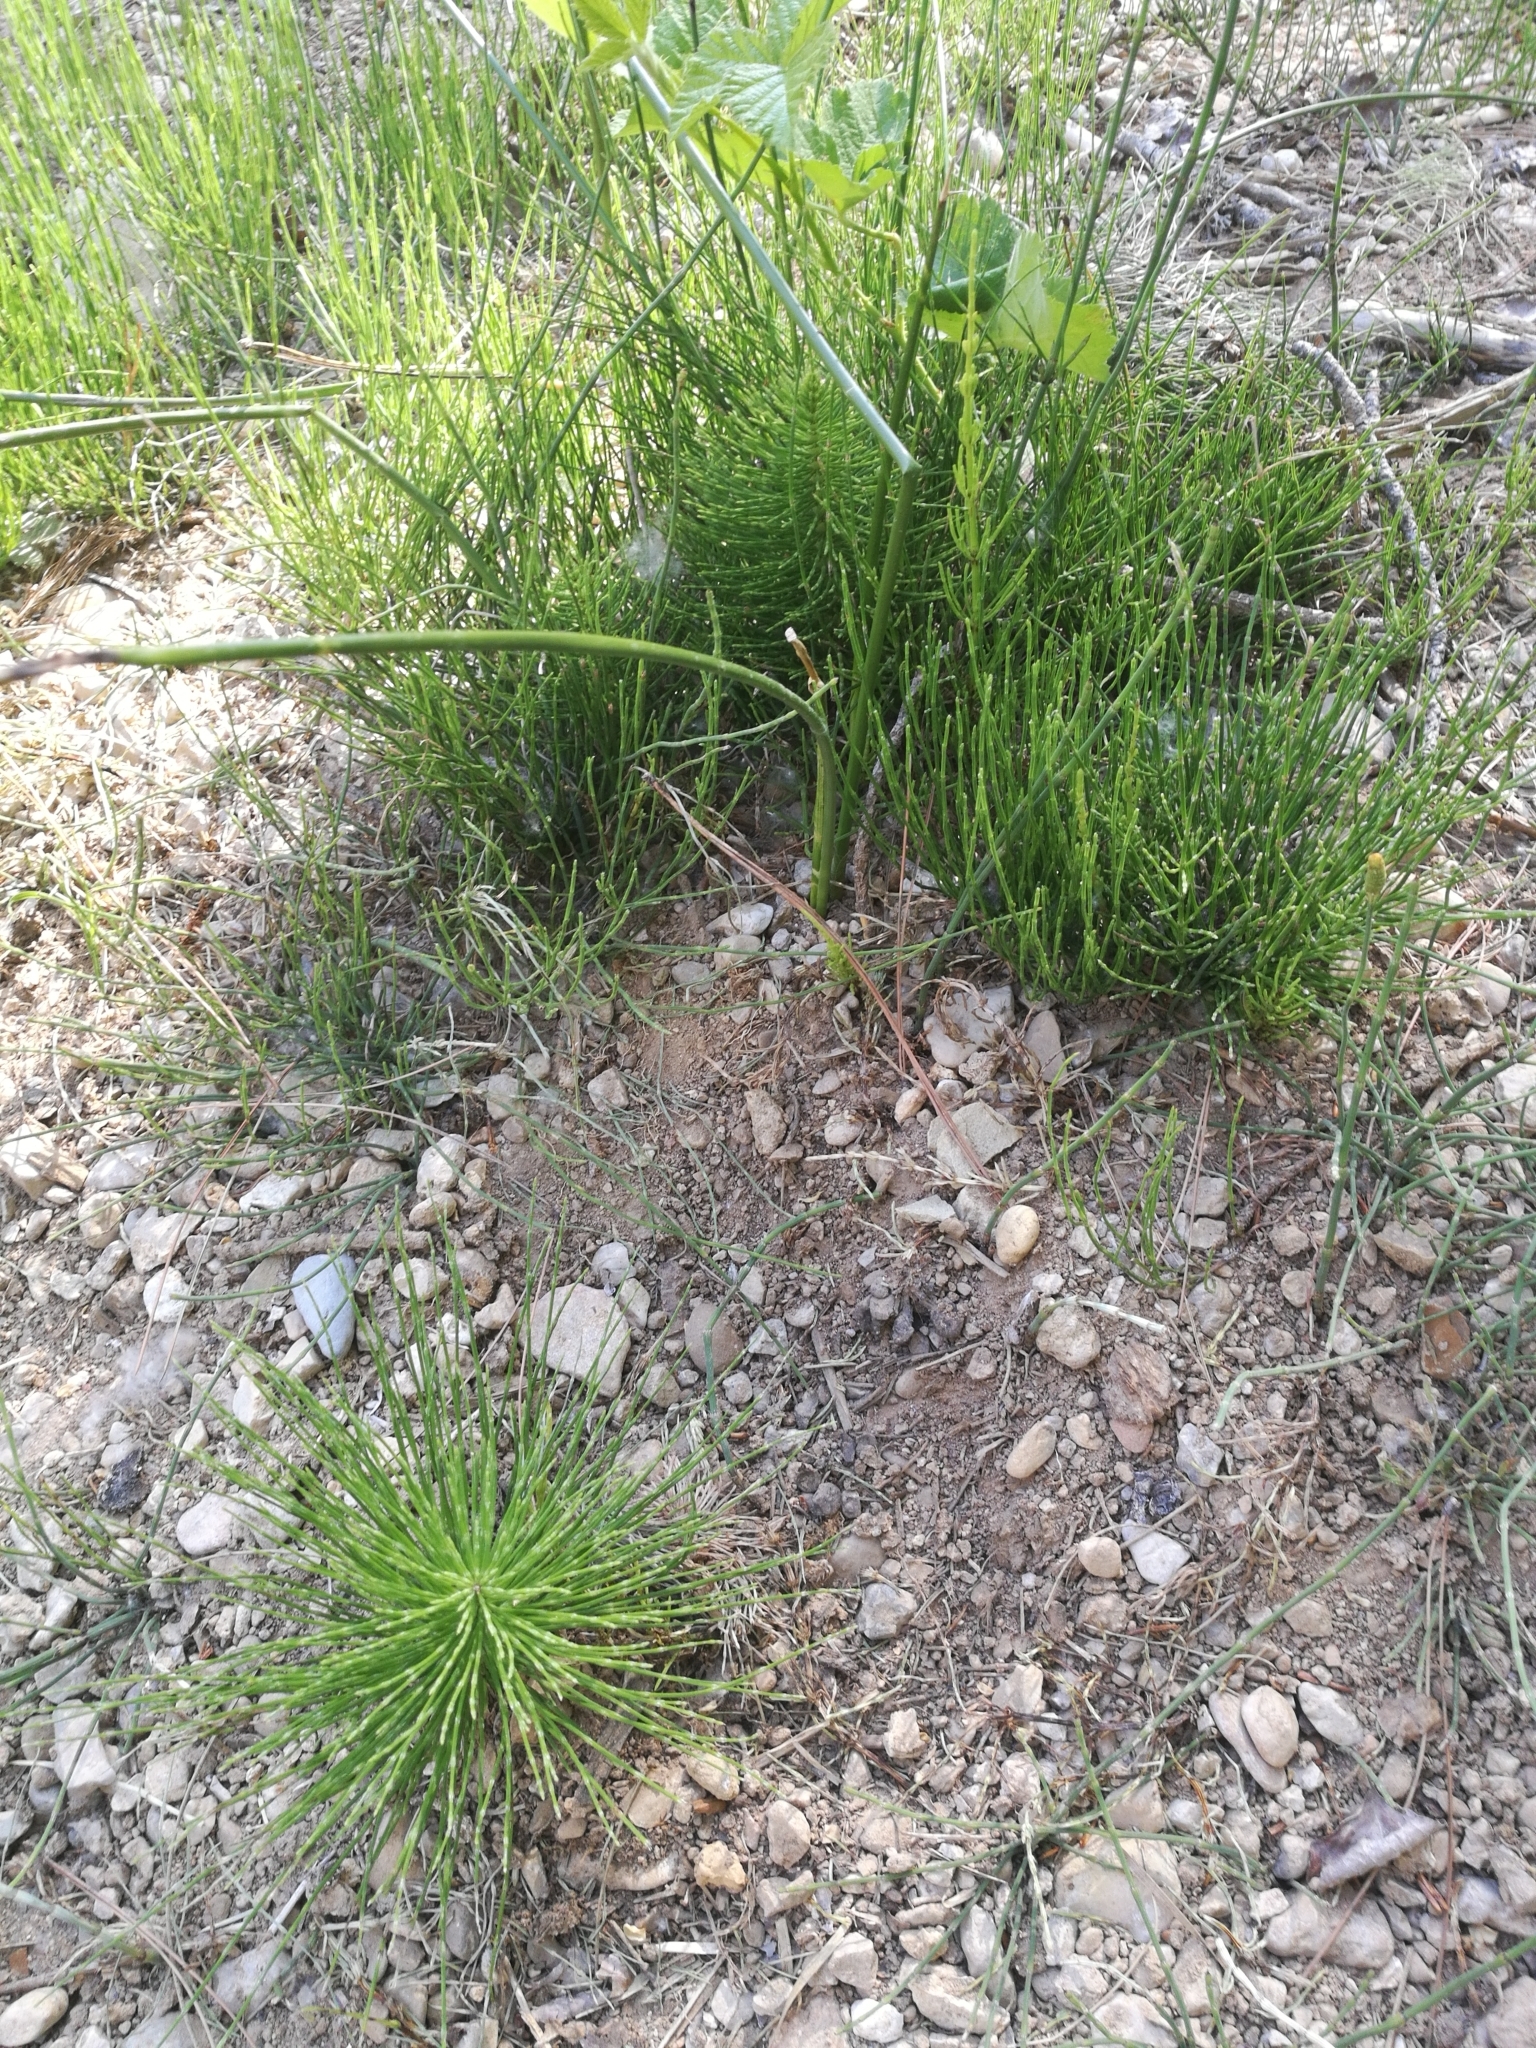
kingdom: Plantae
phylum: Tracheophyta
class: Polypodiopsida
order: Equisetales
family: Equisetaceae
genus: Equisetum
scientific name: Equisetum telmateia
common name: Great horsetail
